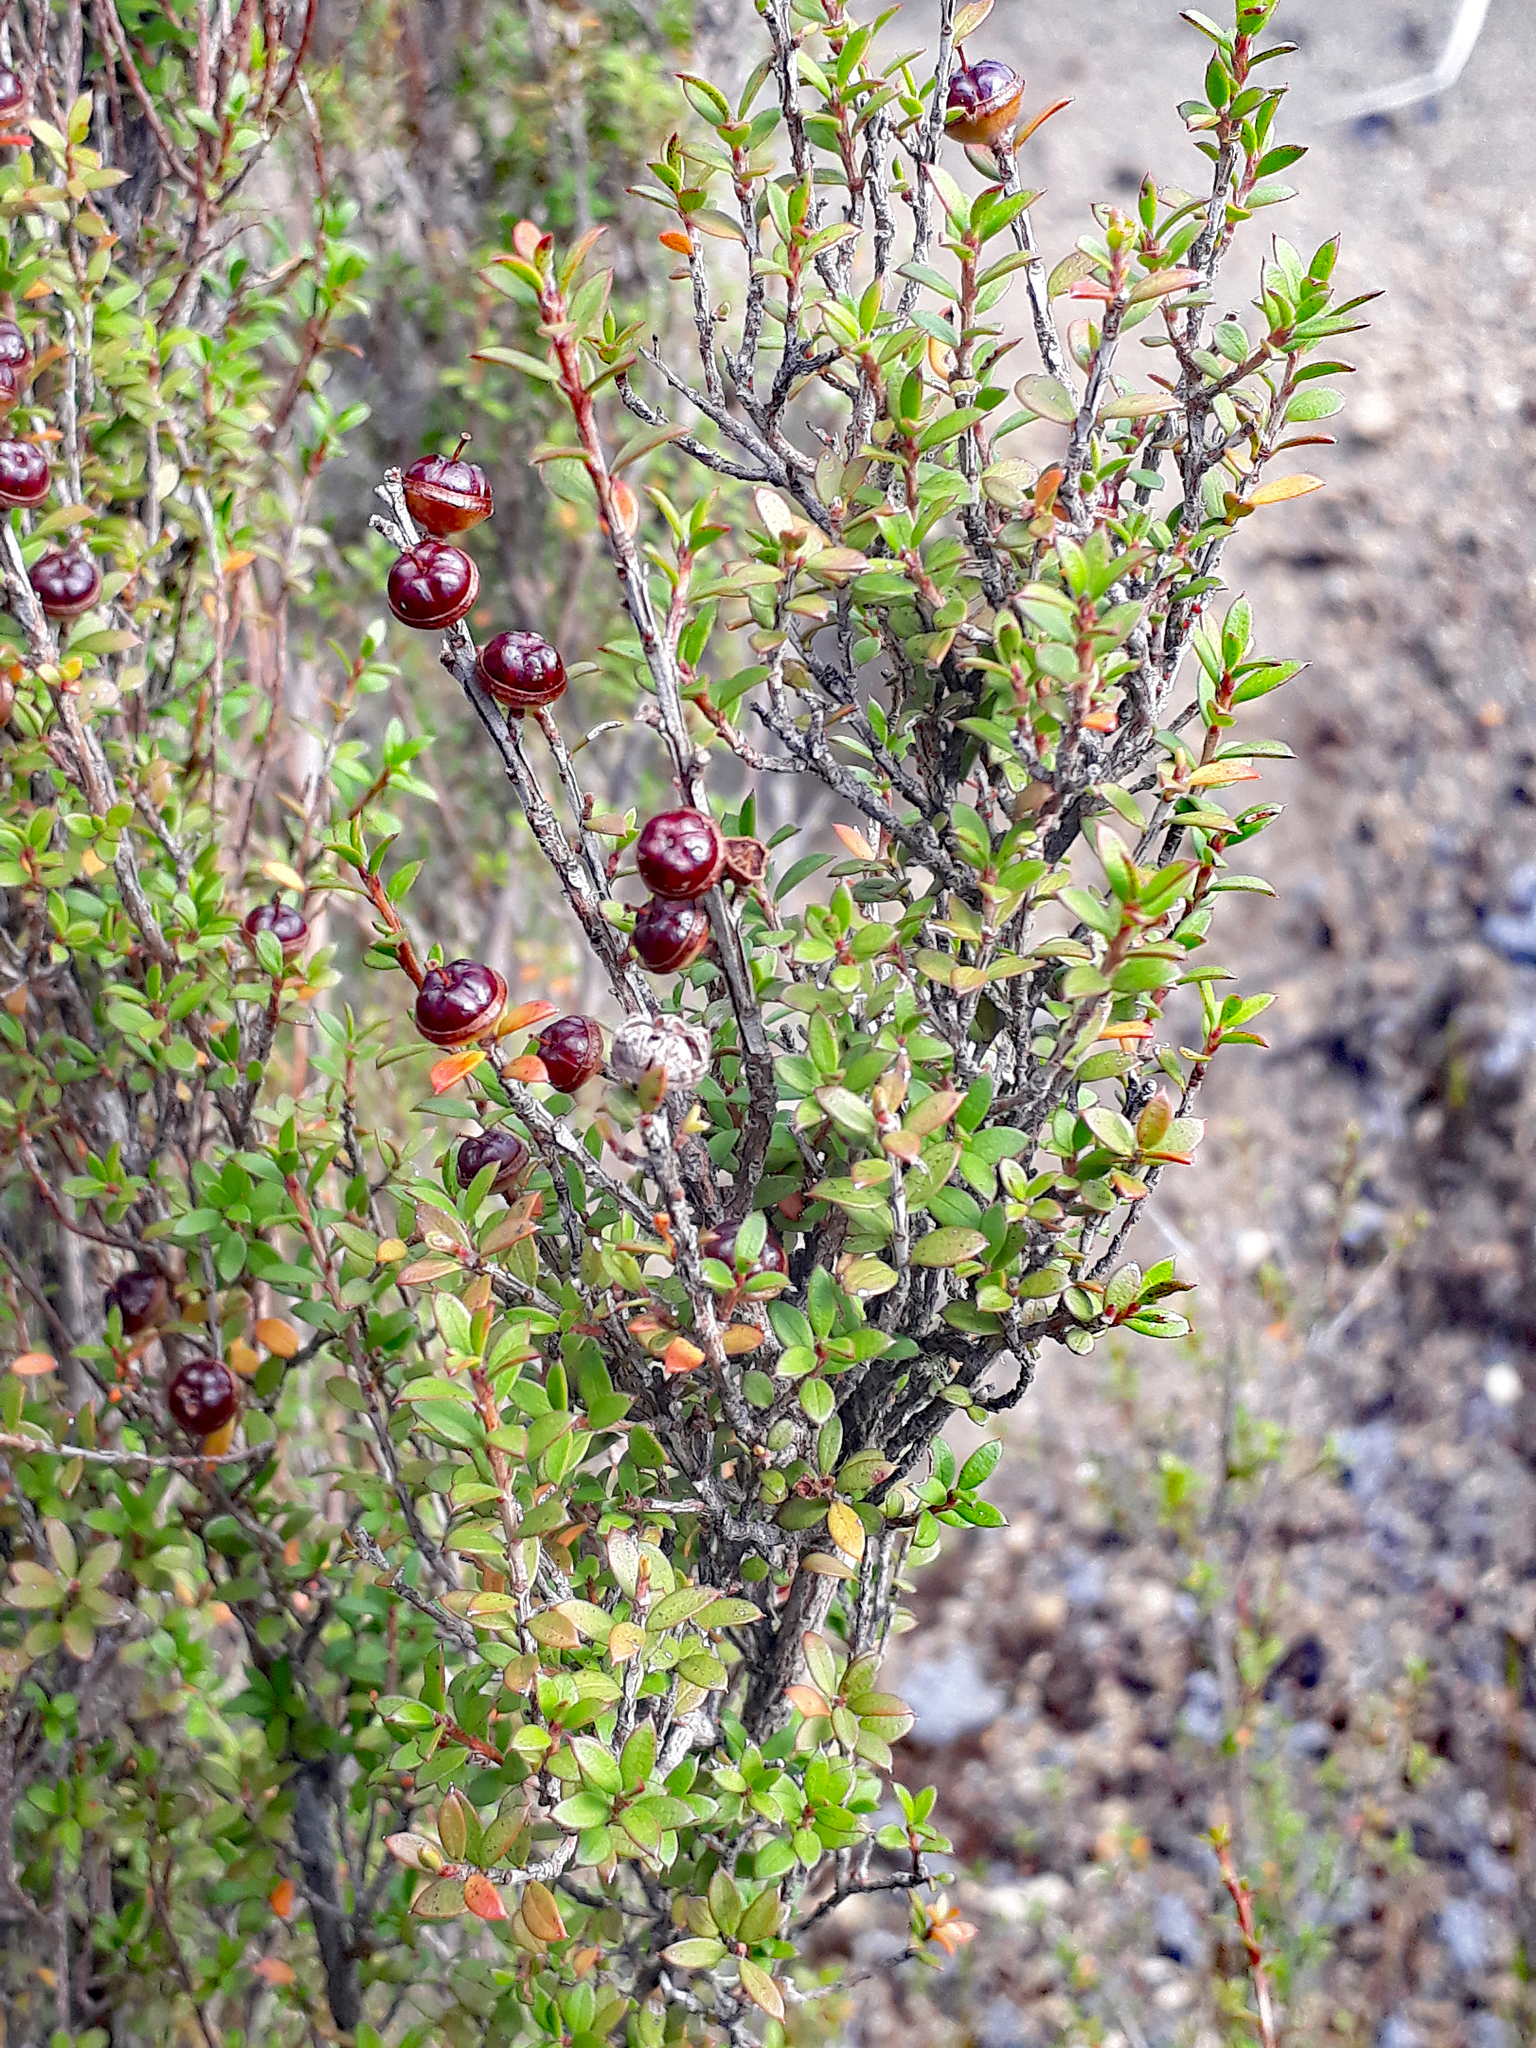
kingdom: Plantae
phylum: Tracheophyta
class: Magnoliopsida
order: Myrtales
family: Myrtaceae
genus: Leptospermum
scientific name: Leptospermum scoparium
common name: Broom tea-tree
